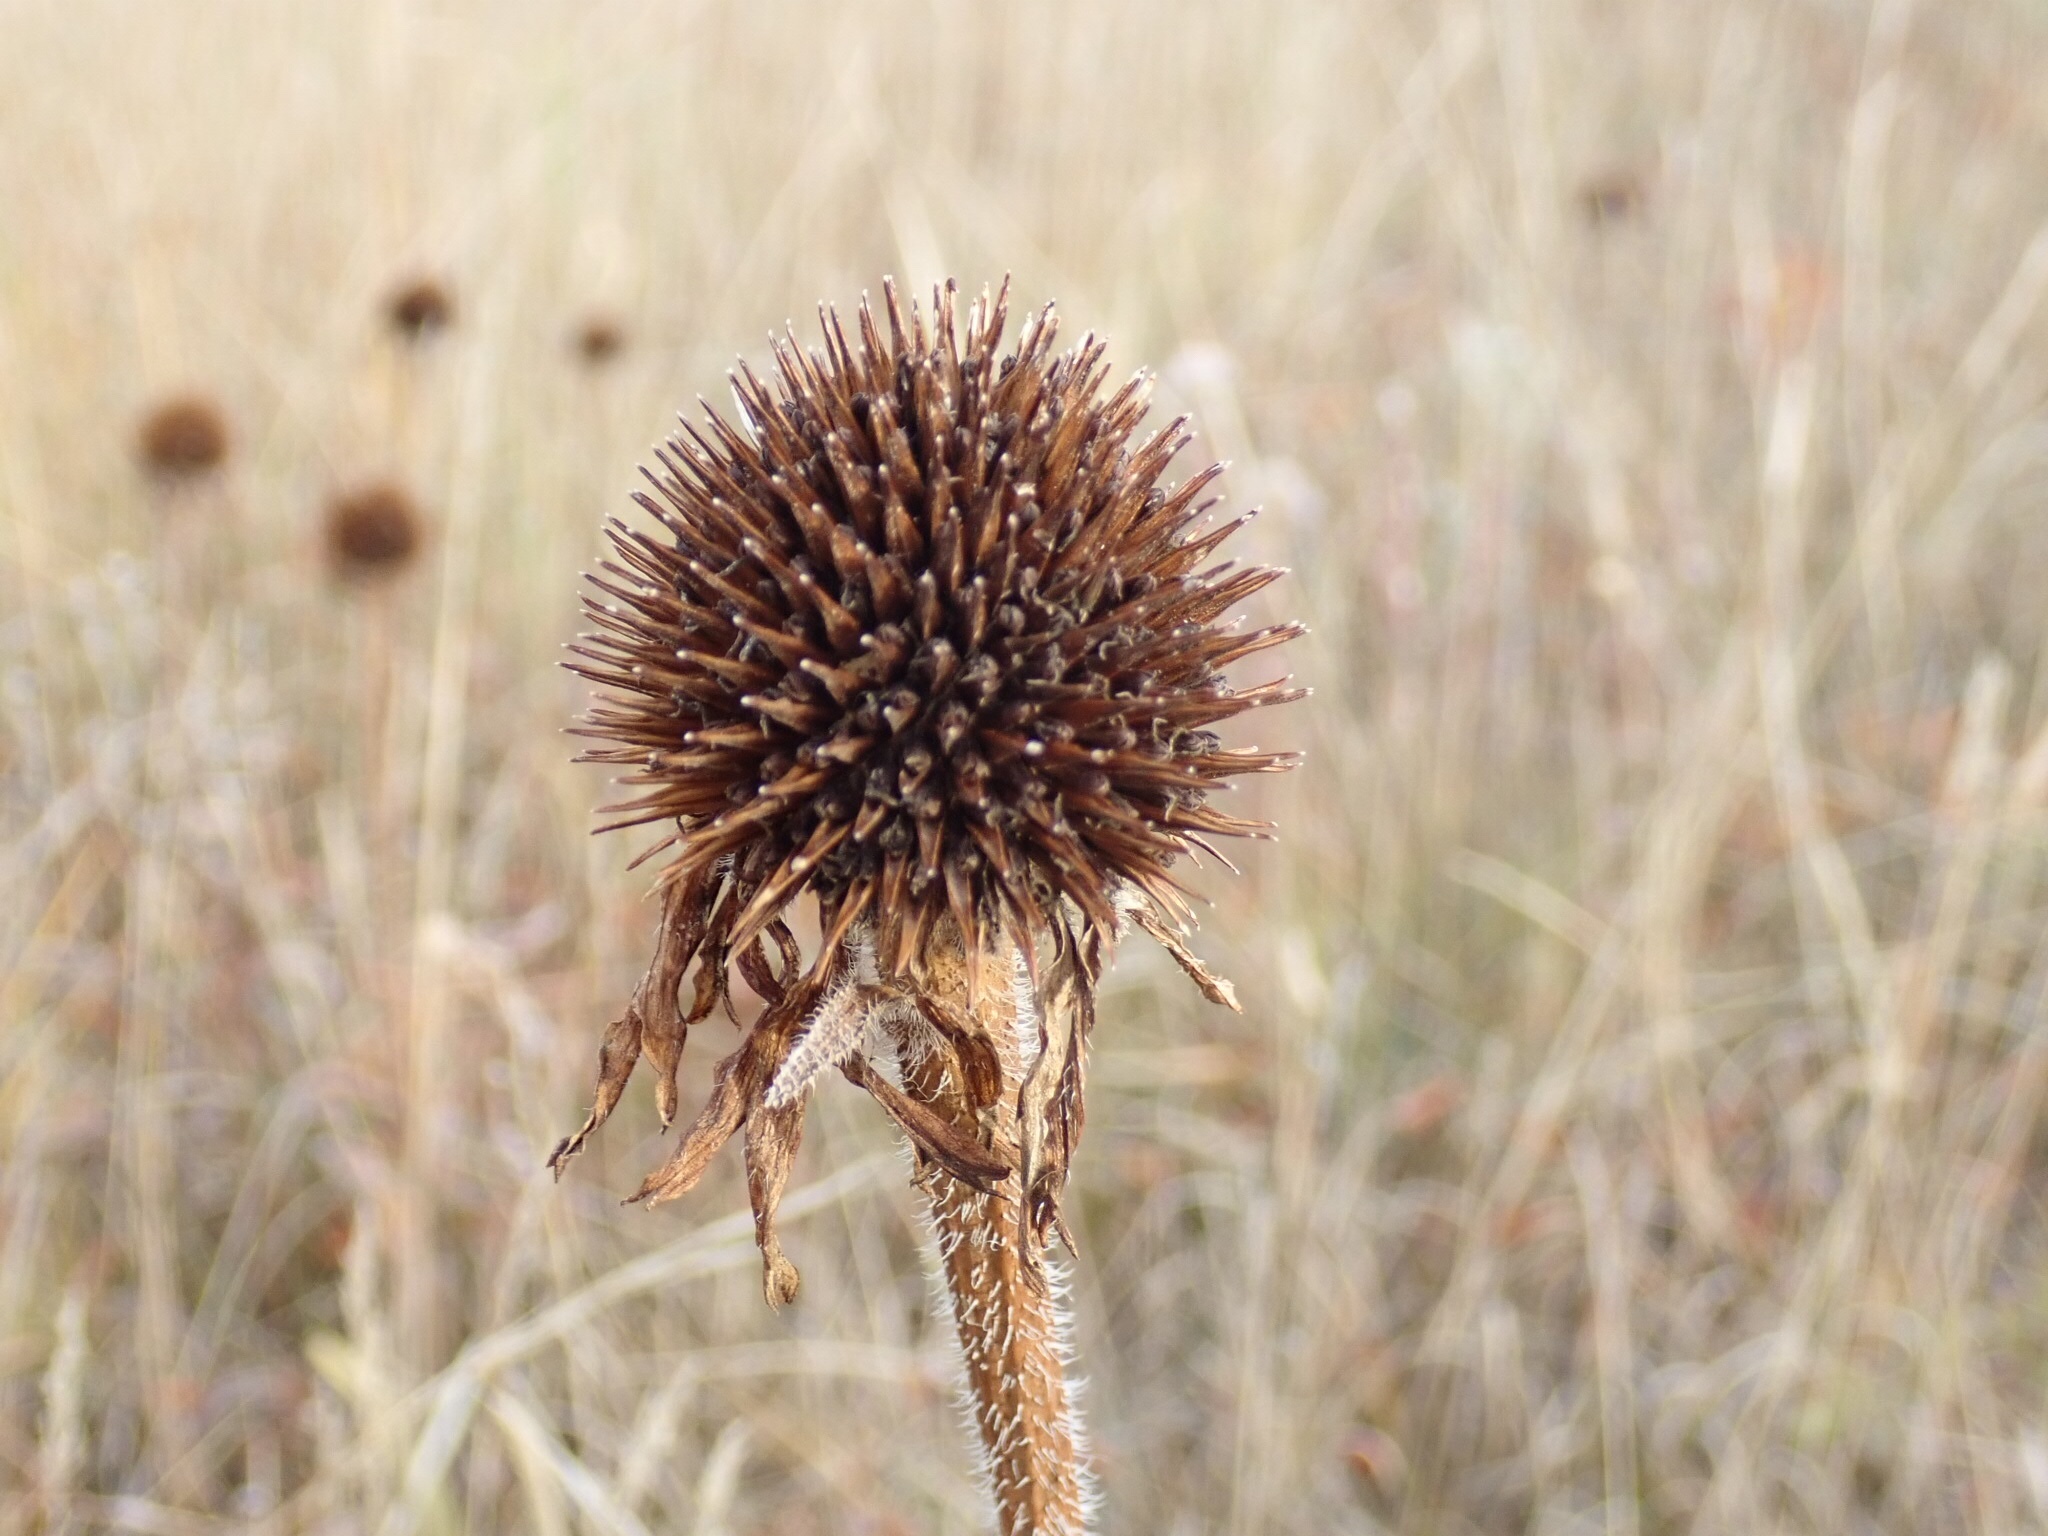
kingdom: Plantae
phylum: Tracheophyta
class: Magnoliopsida
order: Asterales
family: Asteraceae
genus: Echinacea
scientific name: Echinacea angustifolia
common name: Black-sampson echinacea
